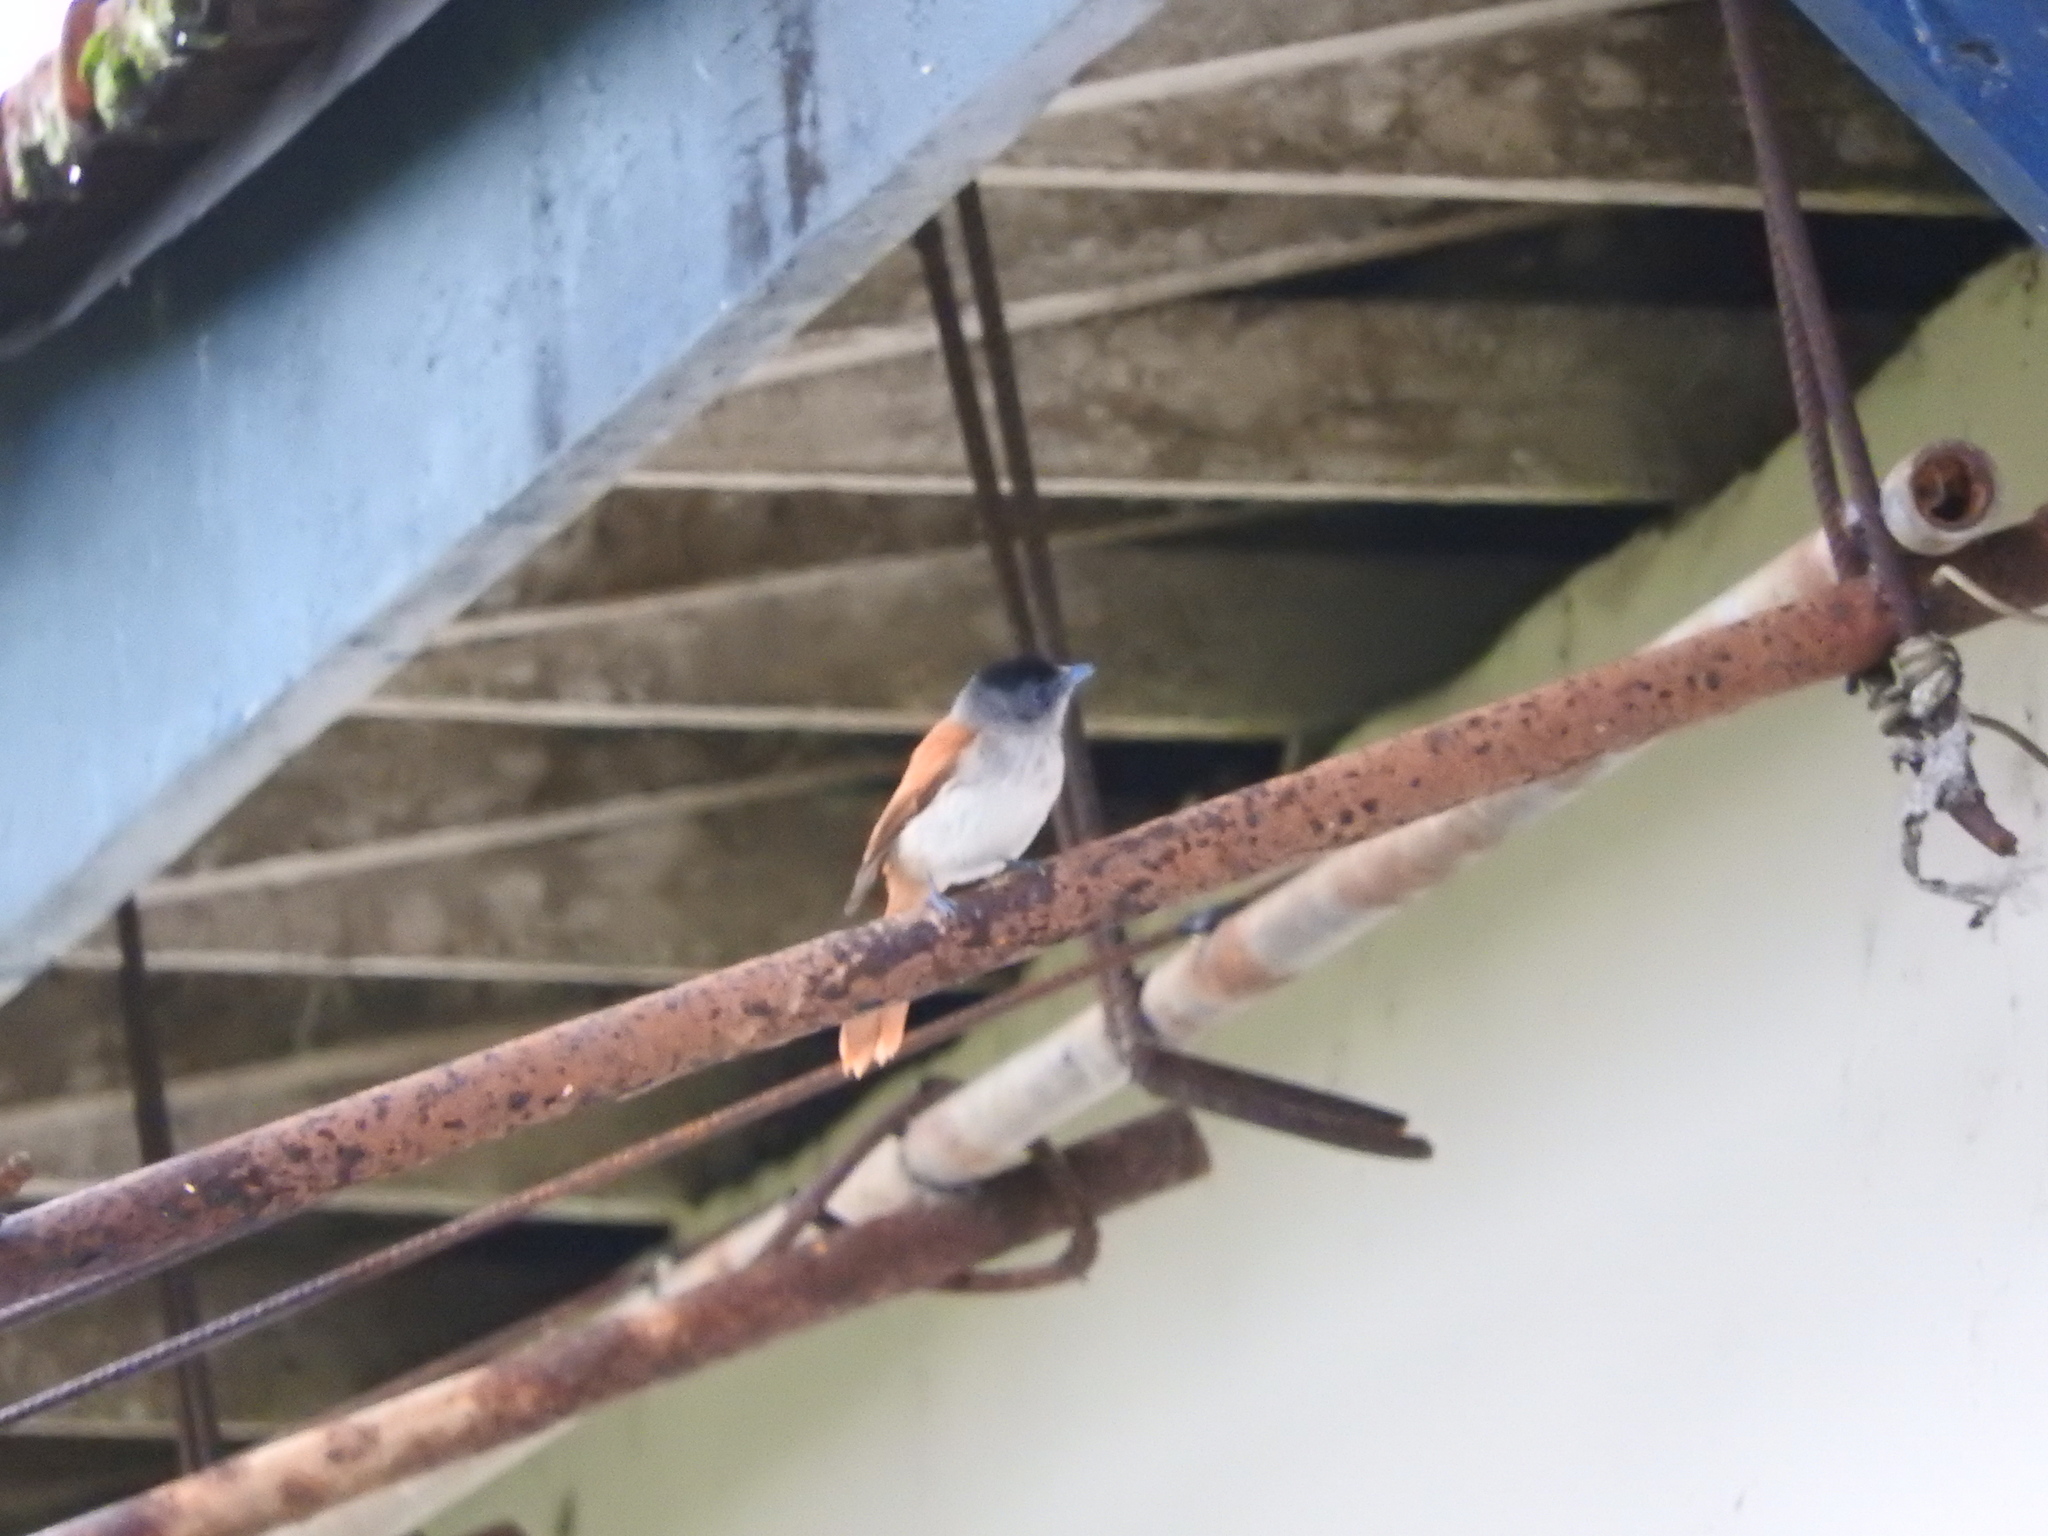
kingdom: Animalia
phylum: Chordata
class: Aves
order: Passeriformes
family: Monarchidae
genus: Terpsiphone
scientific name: Terpsiphone atrochalybeia
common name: Sao tome paradise flycatcher
